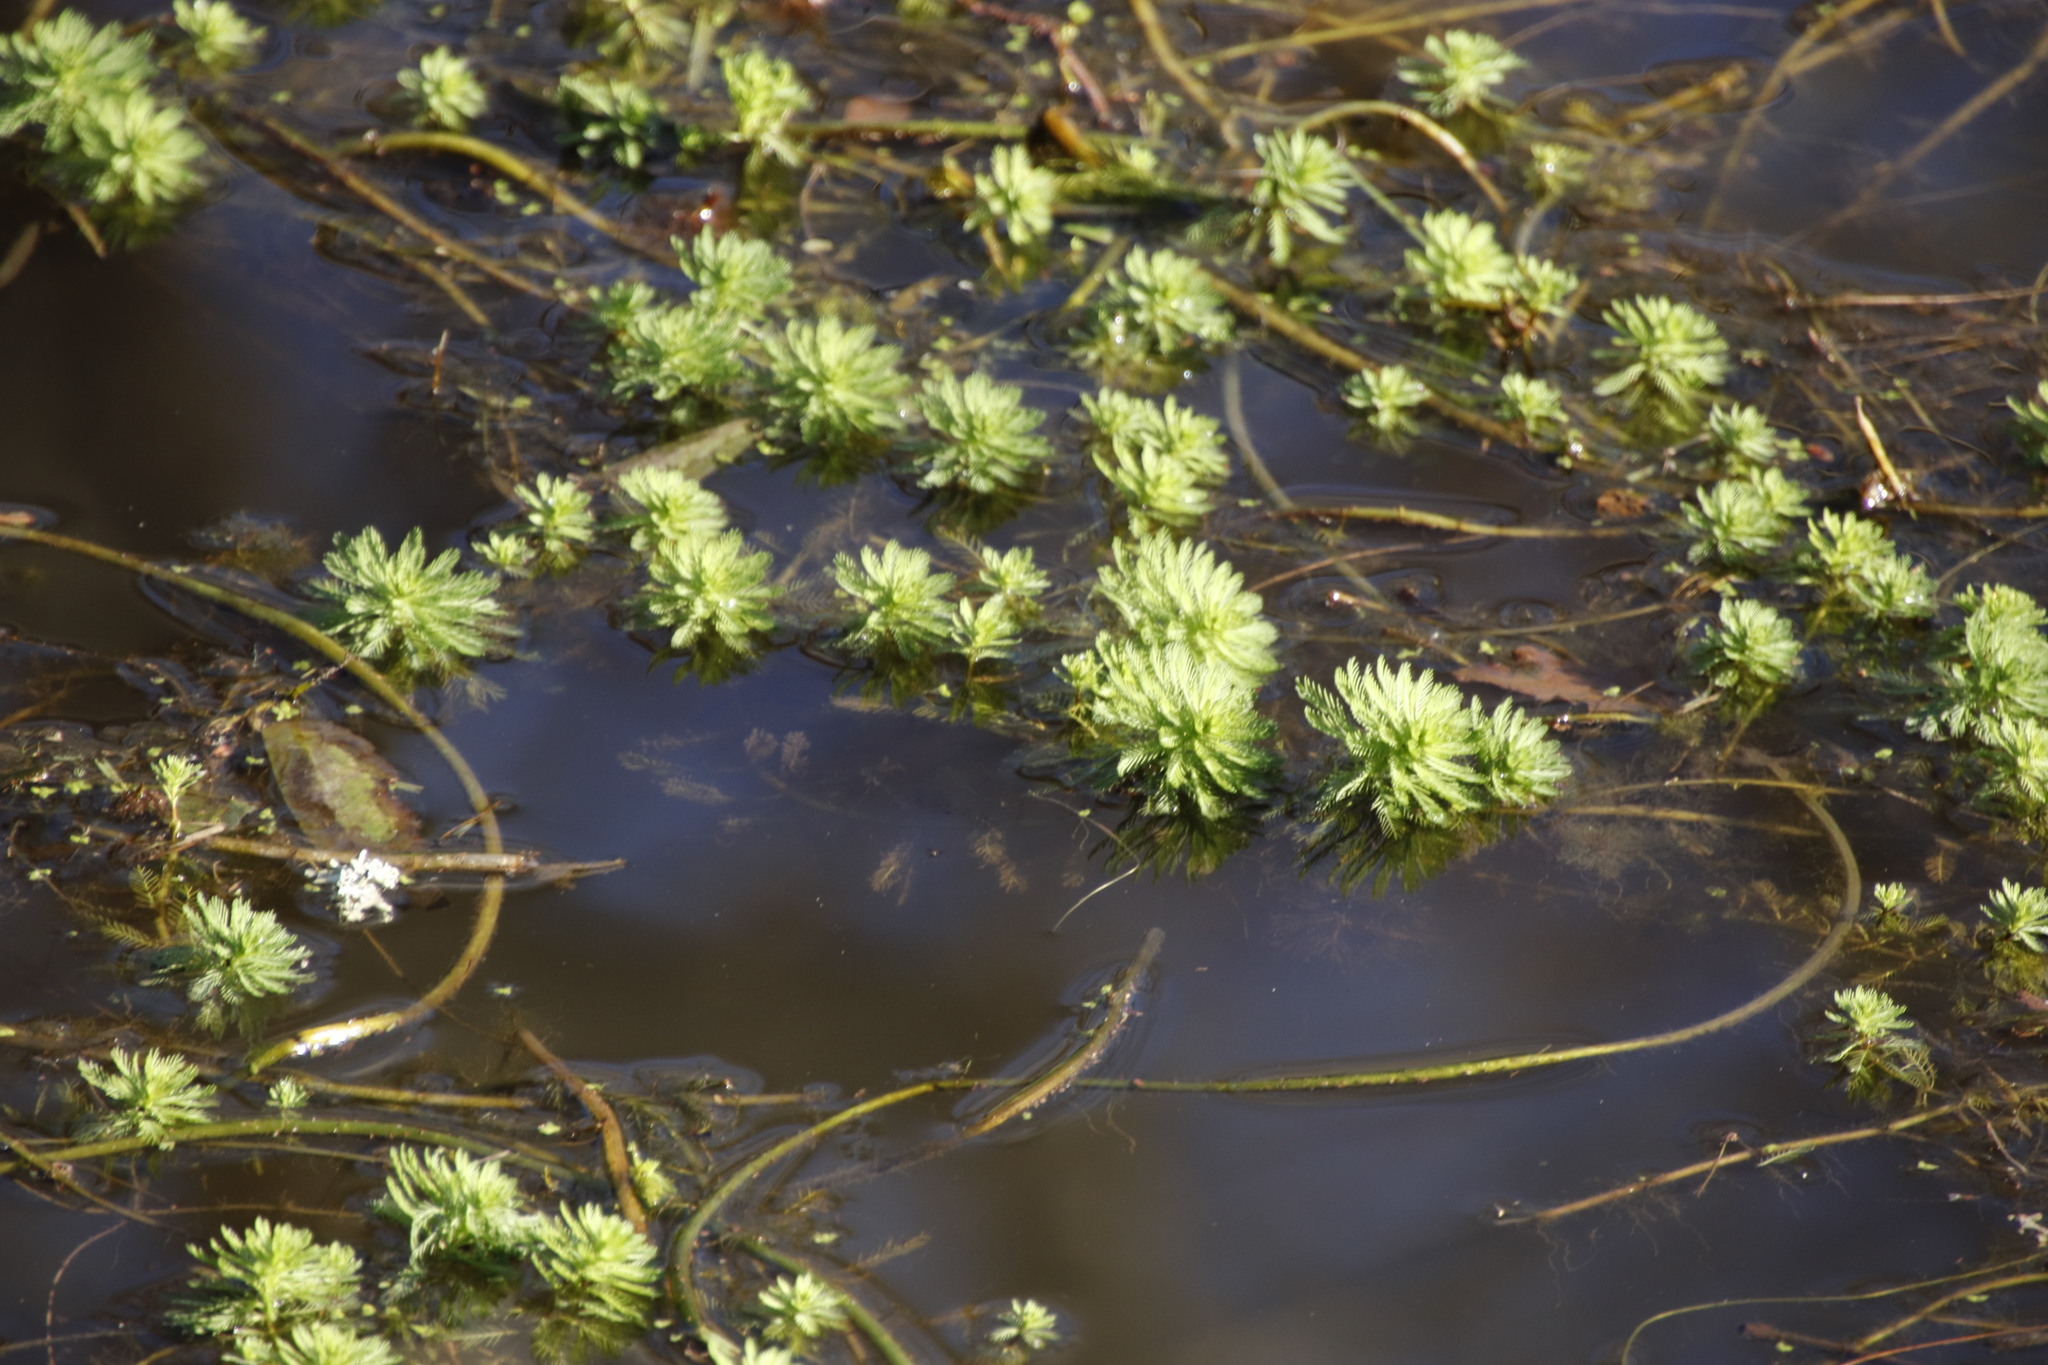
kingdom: Plantae
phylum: Tracheophyta
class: Magnoliopsida
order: Saxifragales
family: Haloragaceae
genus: Myriophyllum
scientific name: Myriophyllum aquaticum
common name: Parrot's feather
